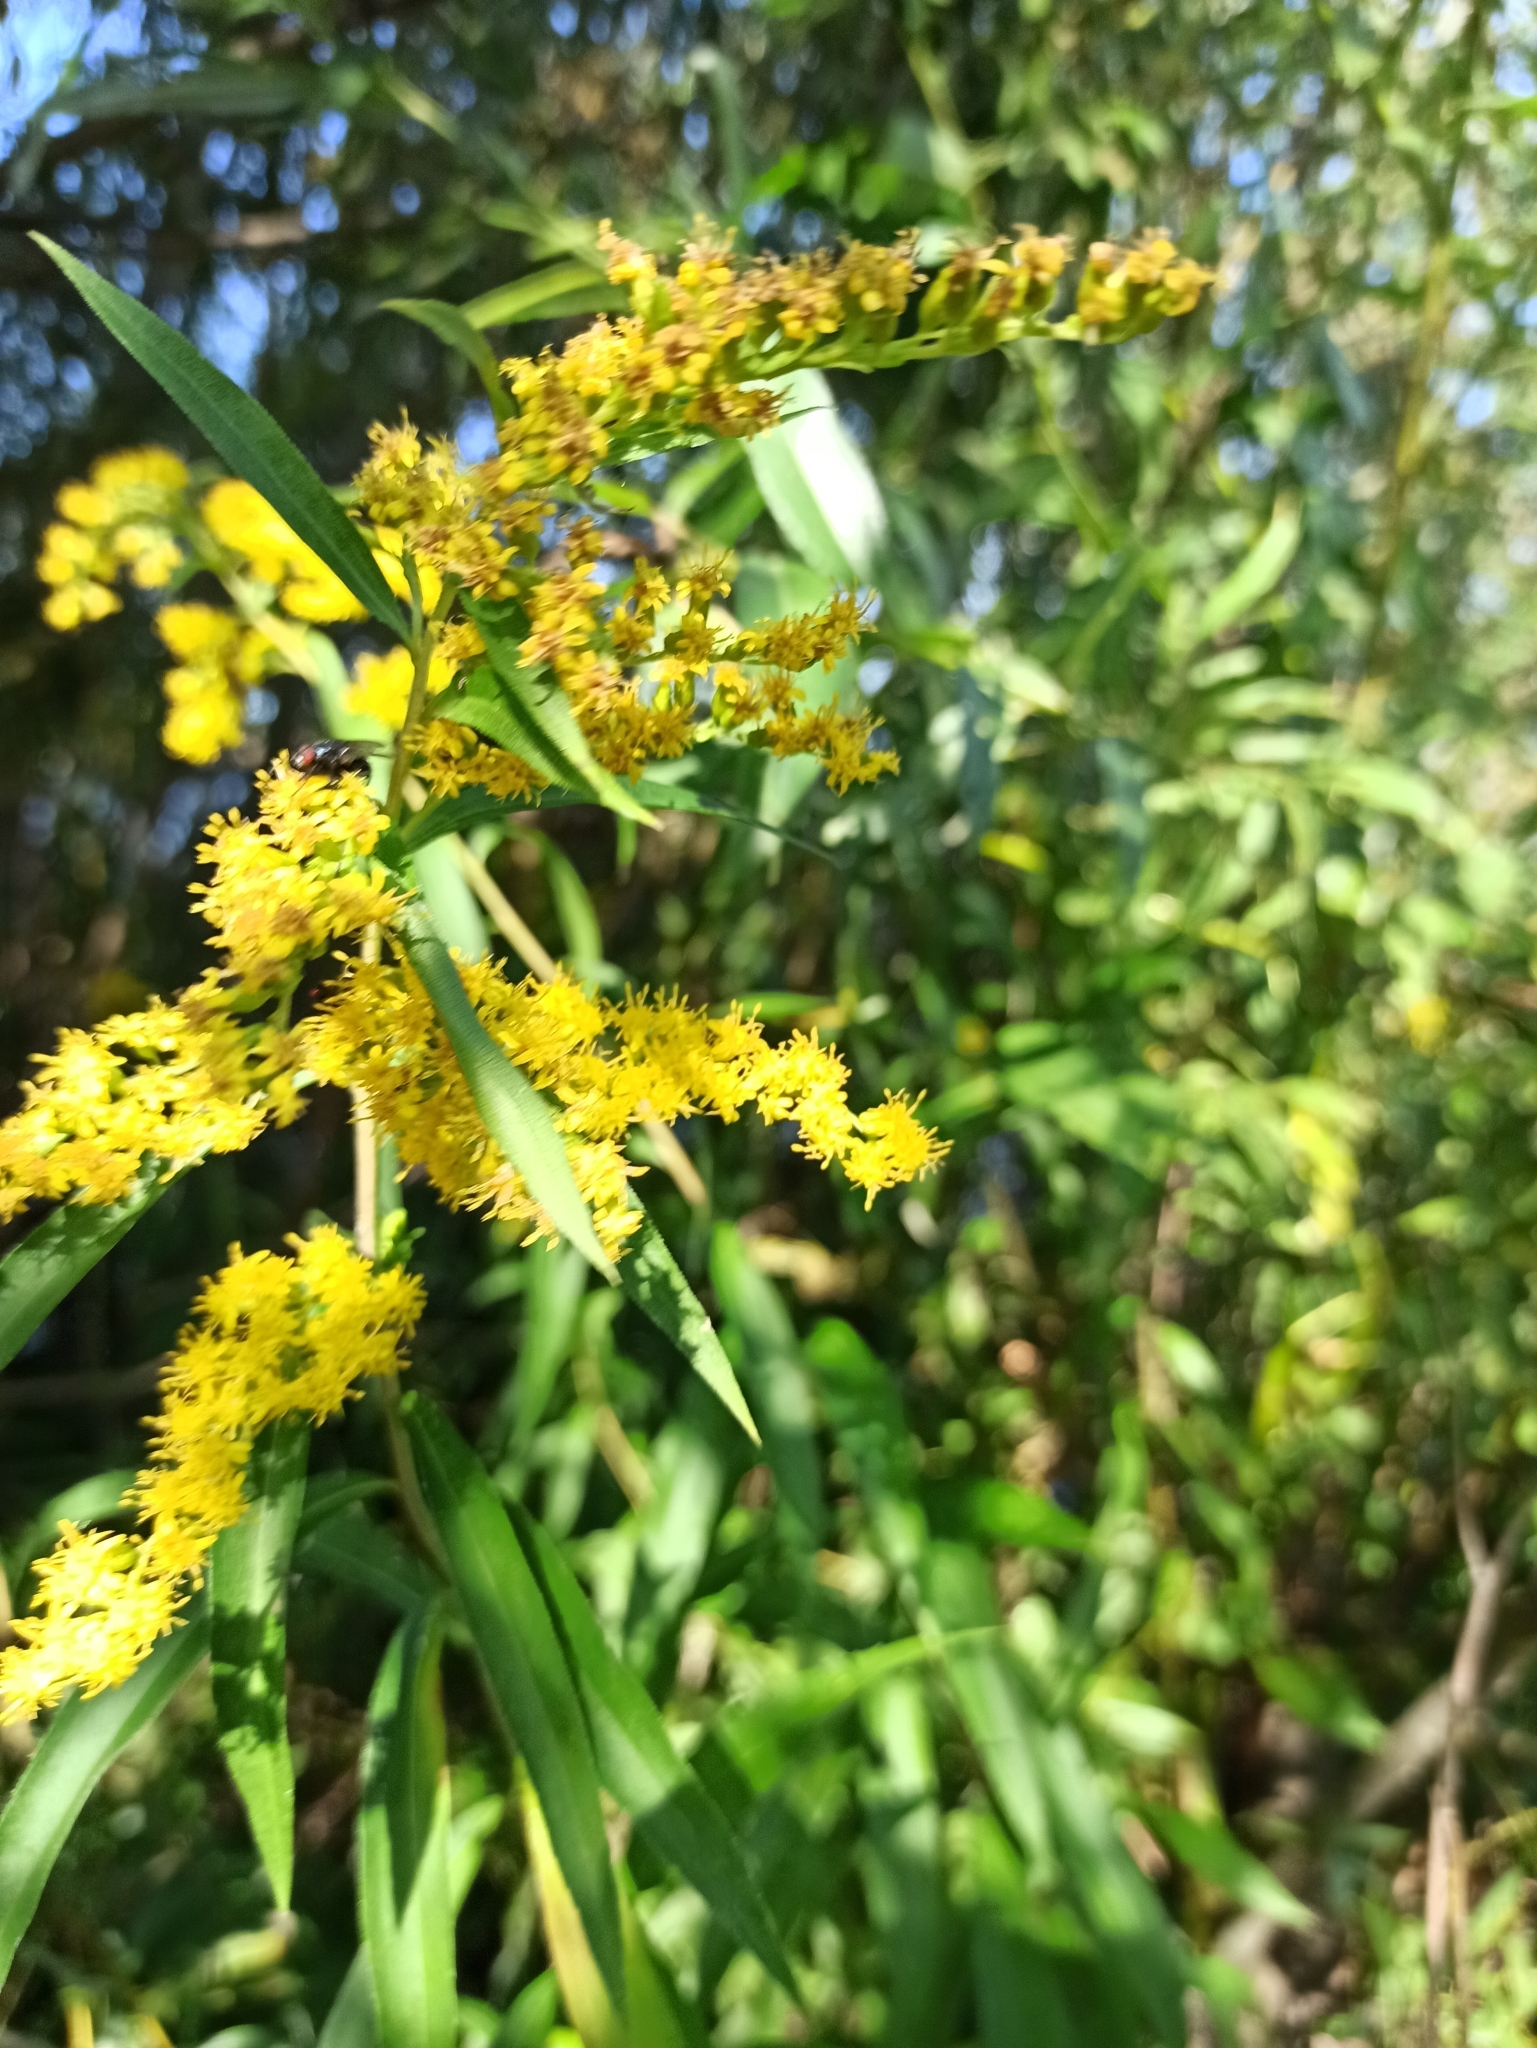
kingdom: Plantae
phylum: Tracheophyta
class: Magnoliopsida
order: Asterales
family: Asteraceae
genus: Solidago
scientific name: Solidago gigantea
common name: Giant goldenrod
